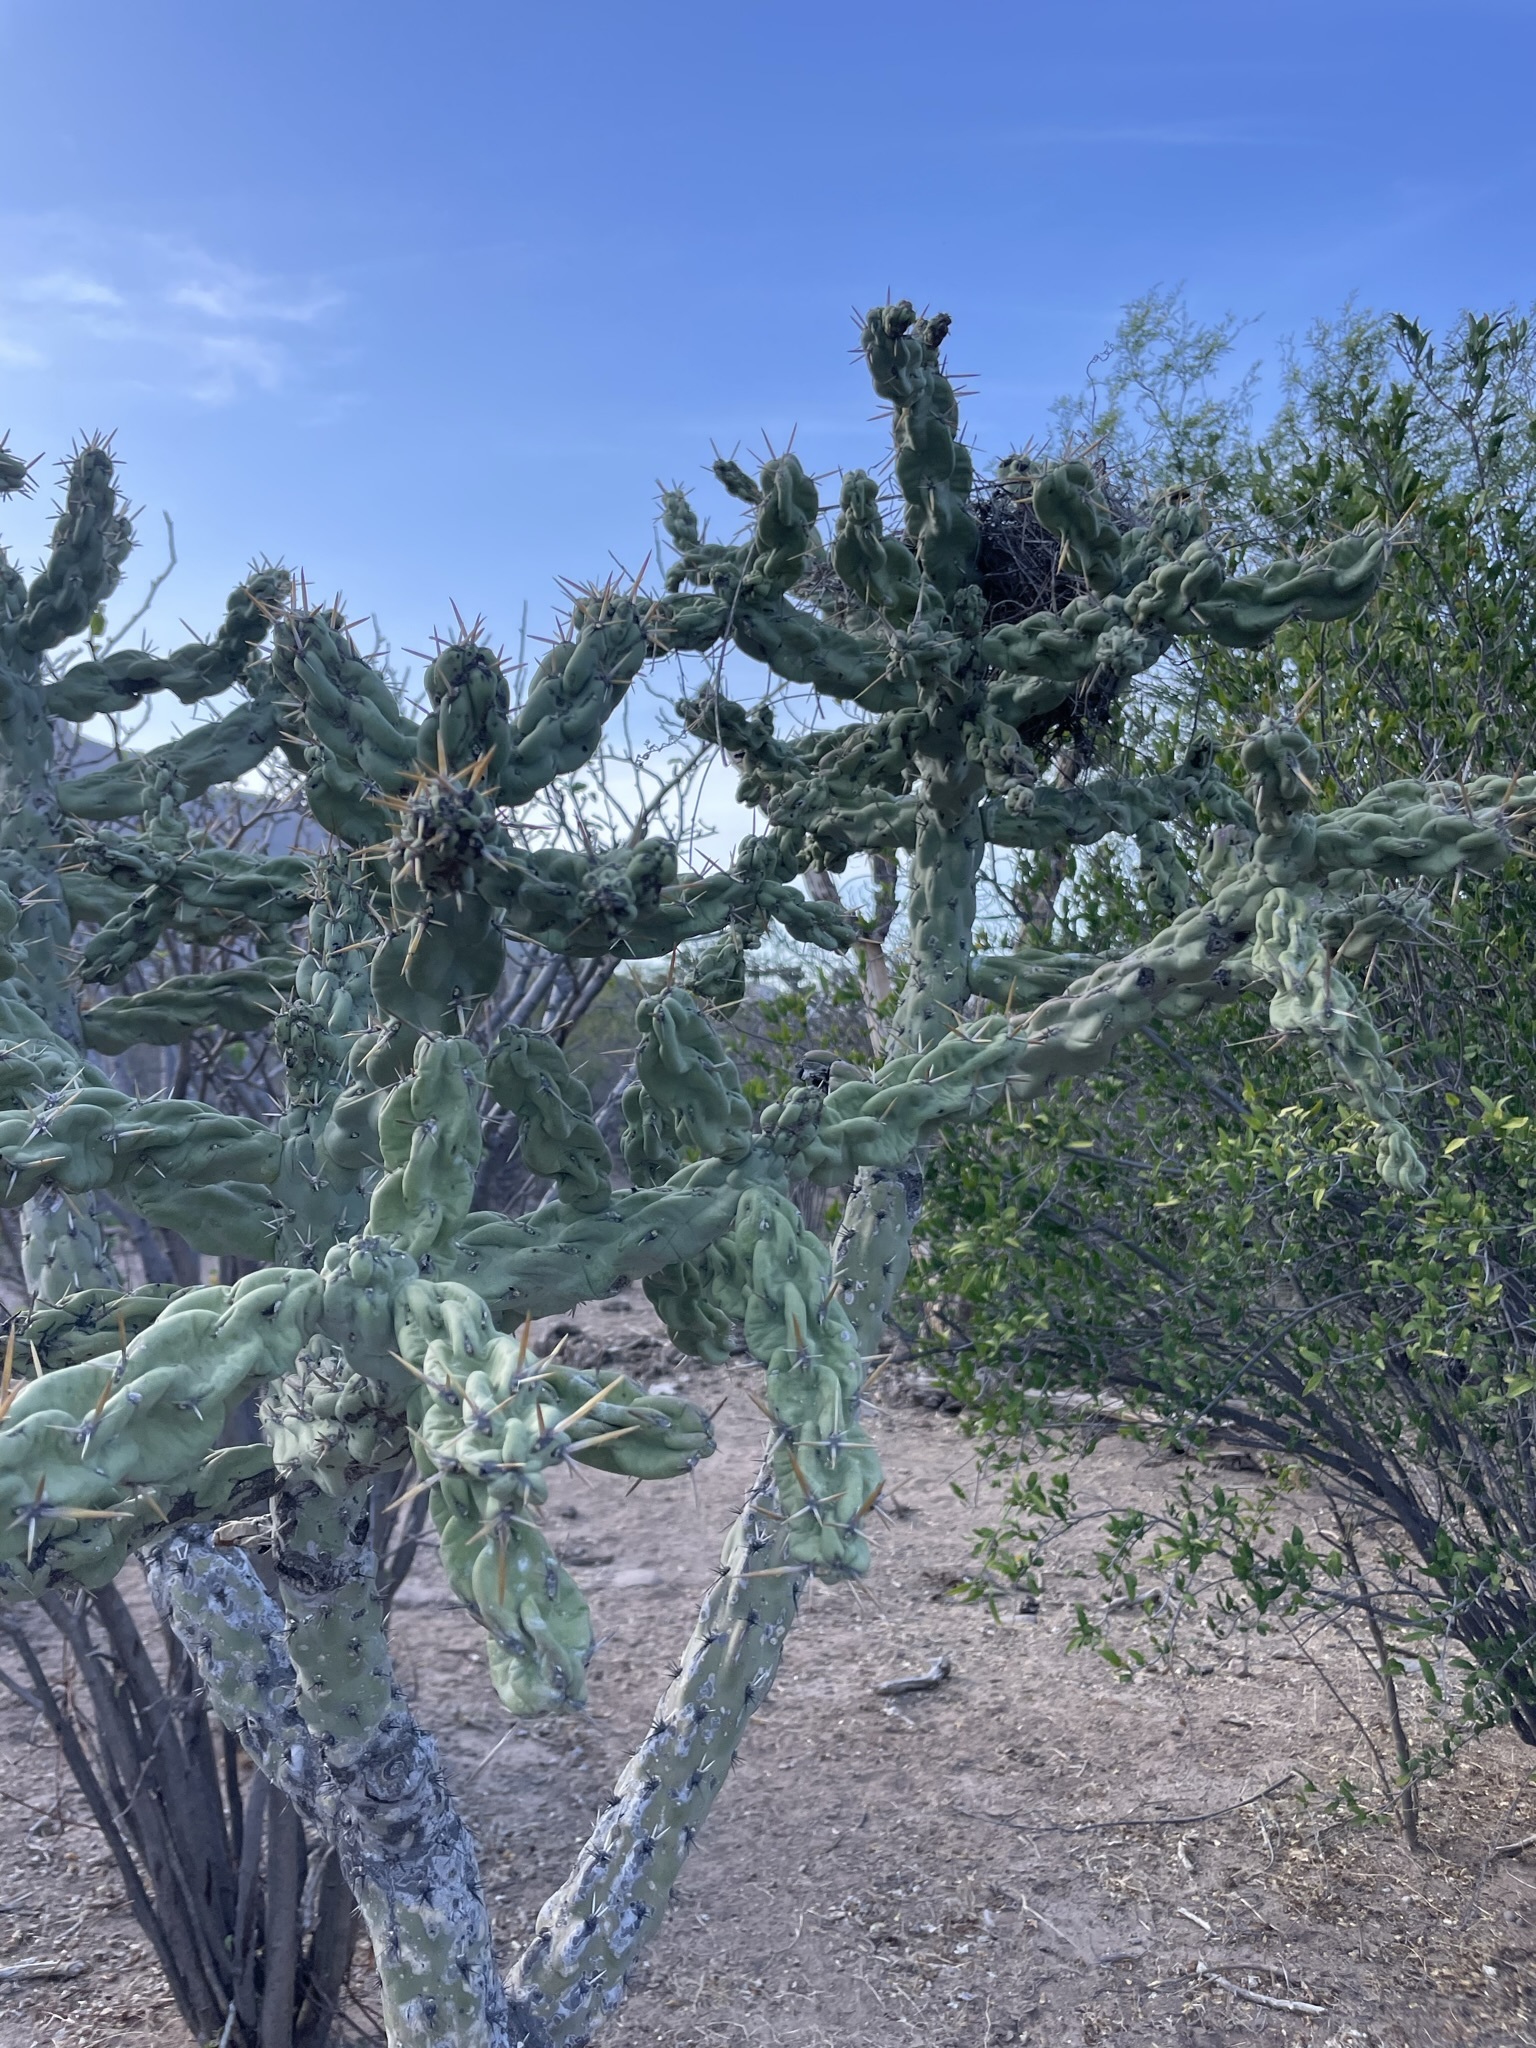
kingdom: Plantae
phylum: Tracheophyta
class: Magnoliopsida
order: Caryophyllales
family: Cactaceae
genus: Cylindropuntia
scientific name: Cylindropuntia cholla
